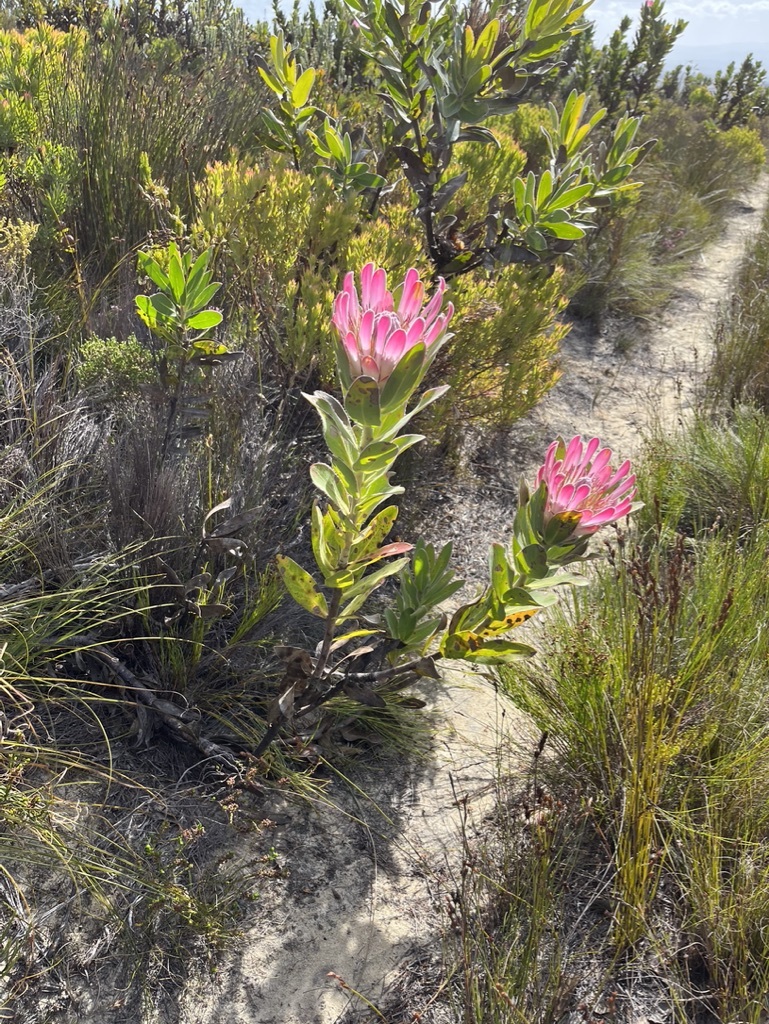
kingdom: Plantae
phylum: Tracheophyta
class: Magnoliopsida
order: Proteales
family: Proteaceae
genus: Protea
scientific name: Protea compacta
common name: Bot river protea
